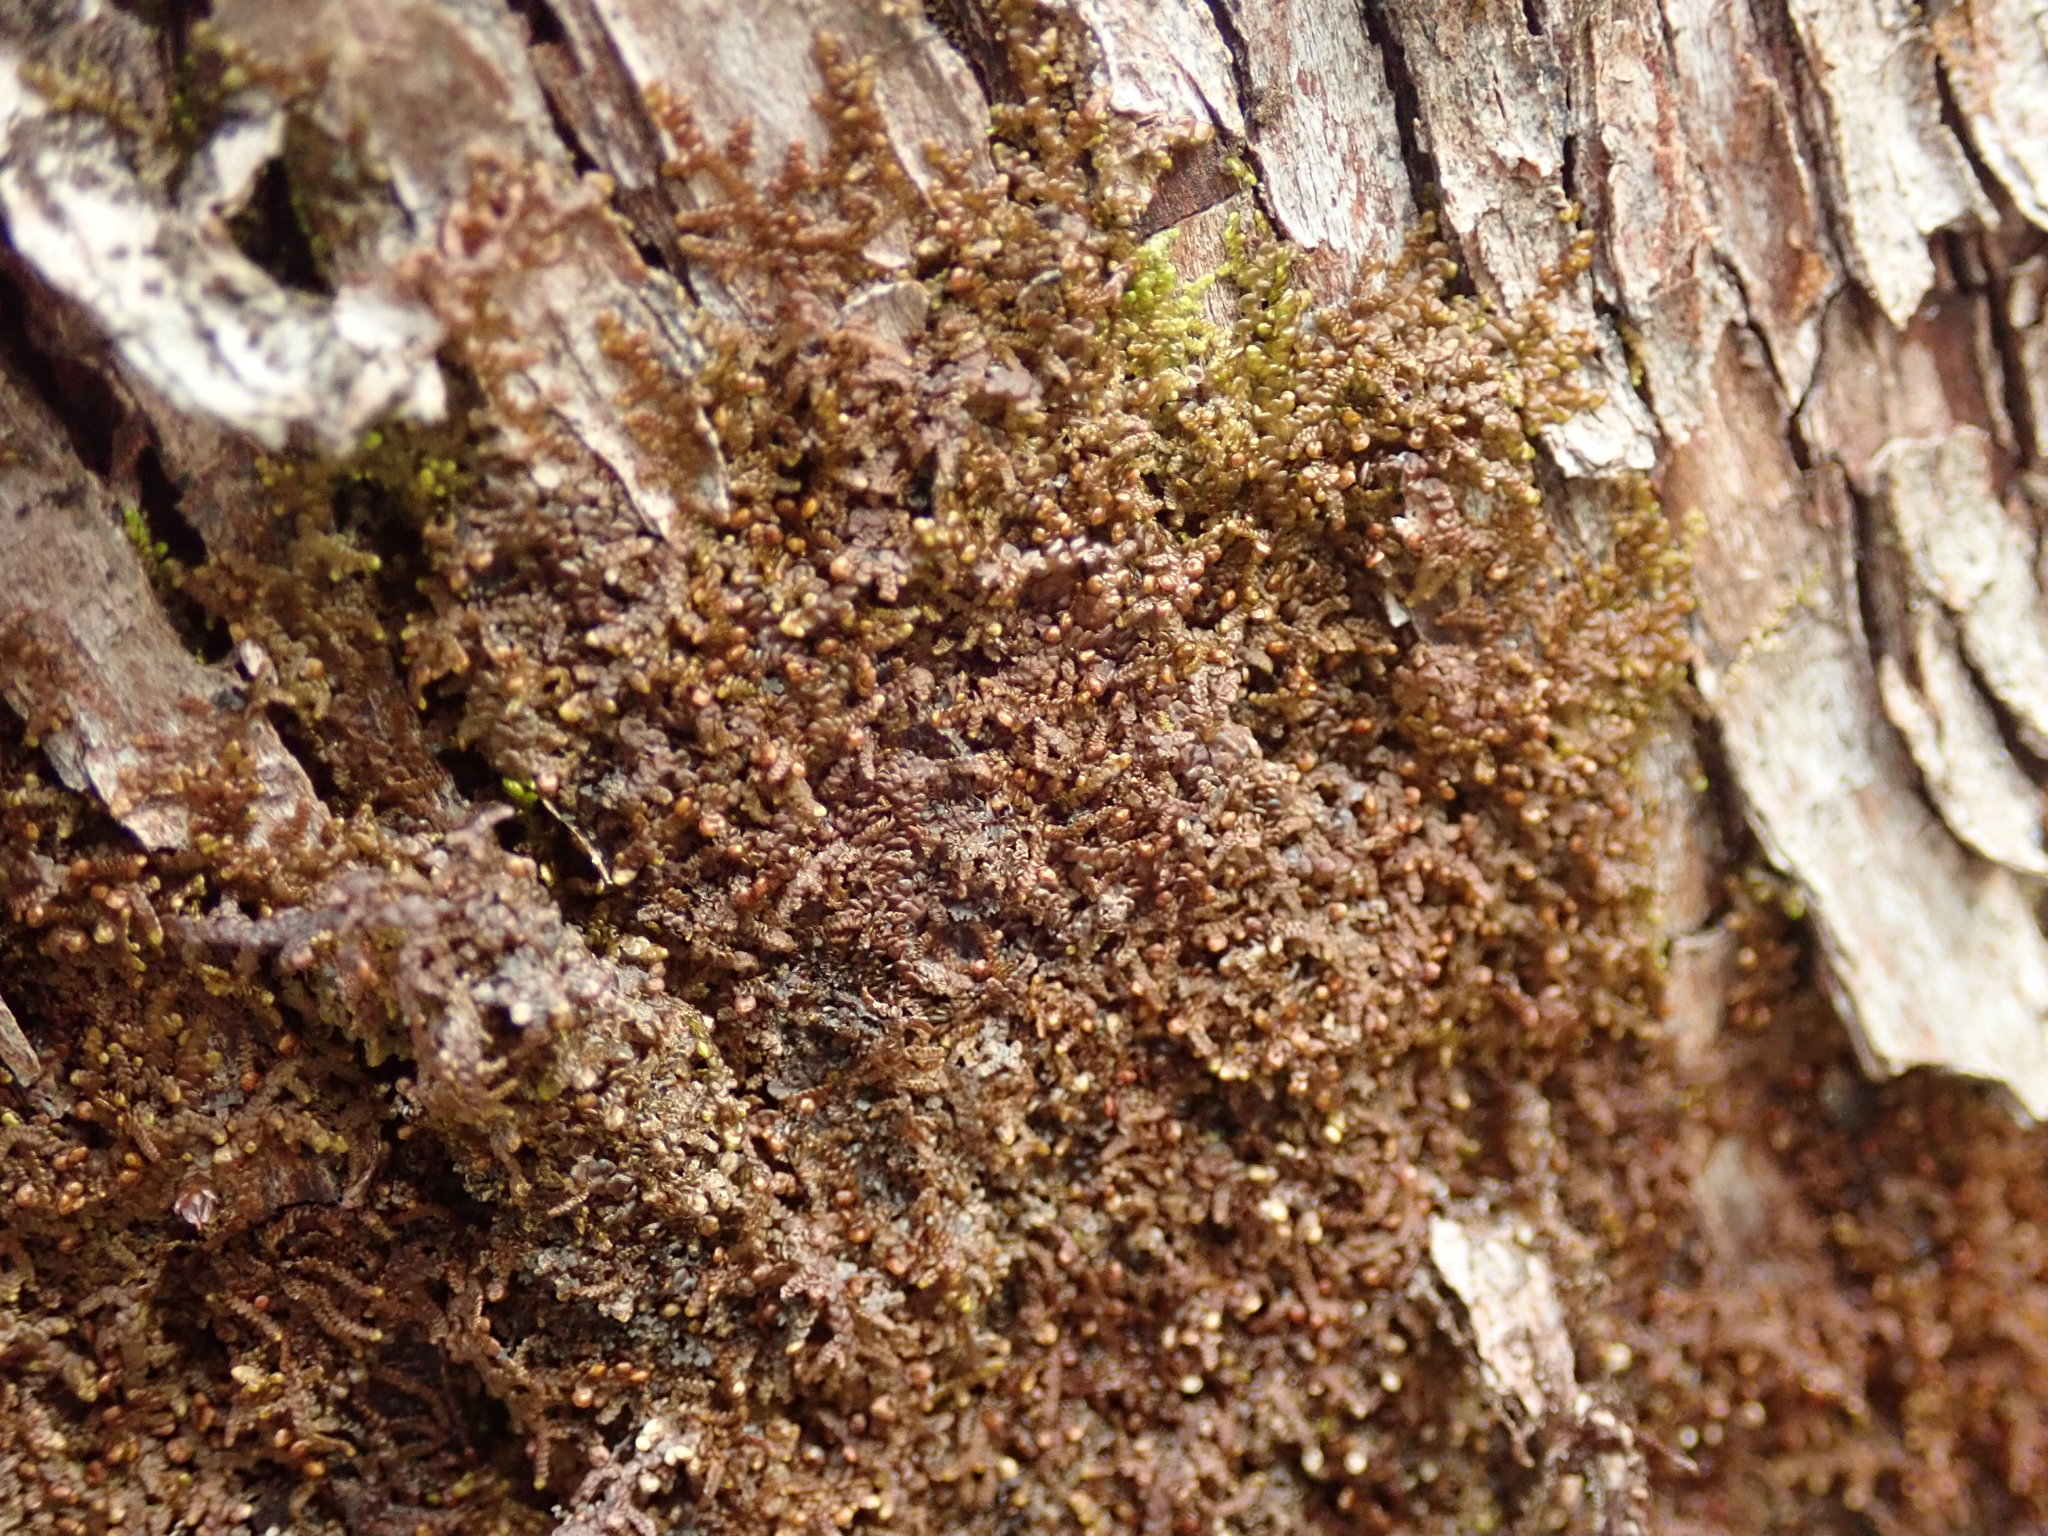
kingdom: Plantae
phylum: Marchantiophyta
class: Jungermanniopsida
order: Porellales
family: Frullaniaceae
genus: Frullania
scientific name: Frullania nisquallensis
